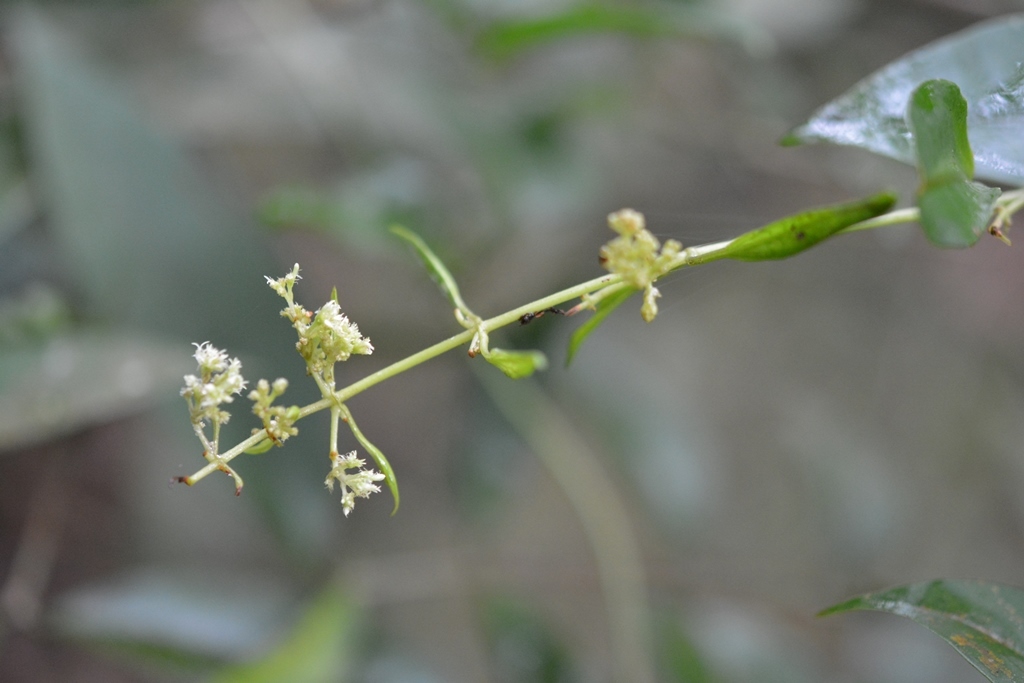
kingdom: Plantae
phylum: Tracheophyta
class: Magnoliopsida
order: Gentianales
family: Rubiaceae
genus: Manettia
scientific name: Manettia flexilis
